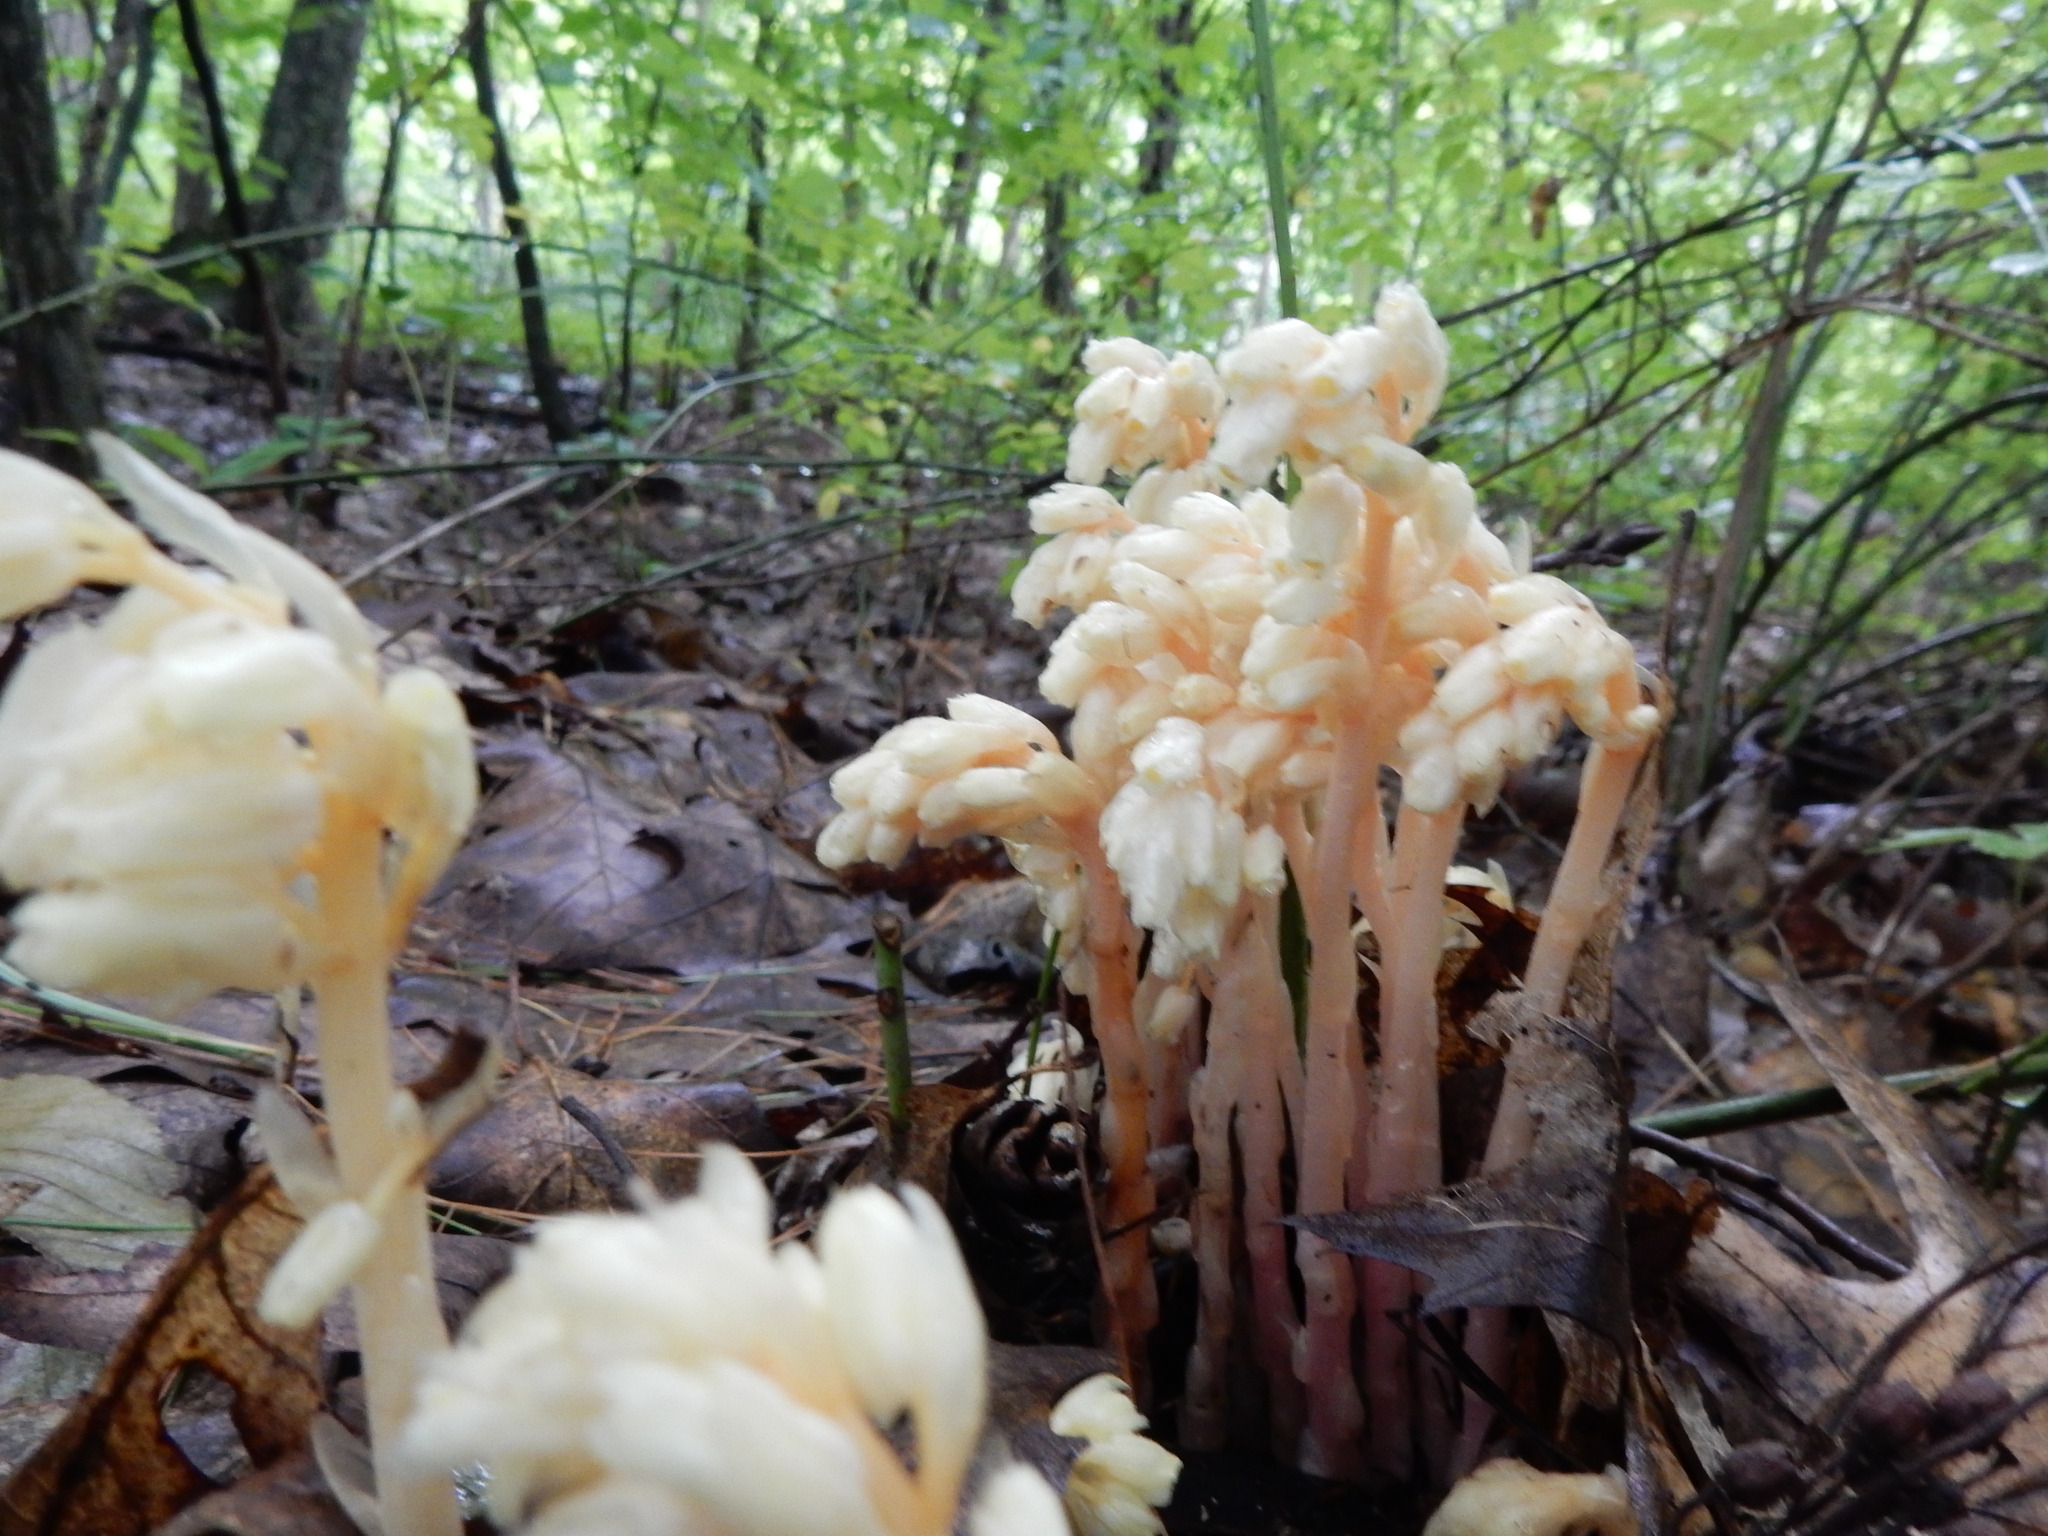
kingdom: Plantae
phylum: Tracheophyta
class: Magnoliopsida
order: Ericales
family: Ericaceae
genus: Hypopitys
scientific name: Hypopitys monotropa
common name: Yellow bird's-nest
